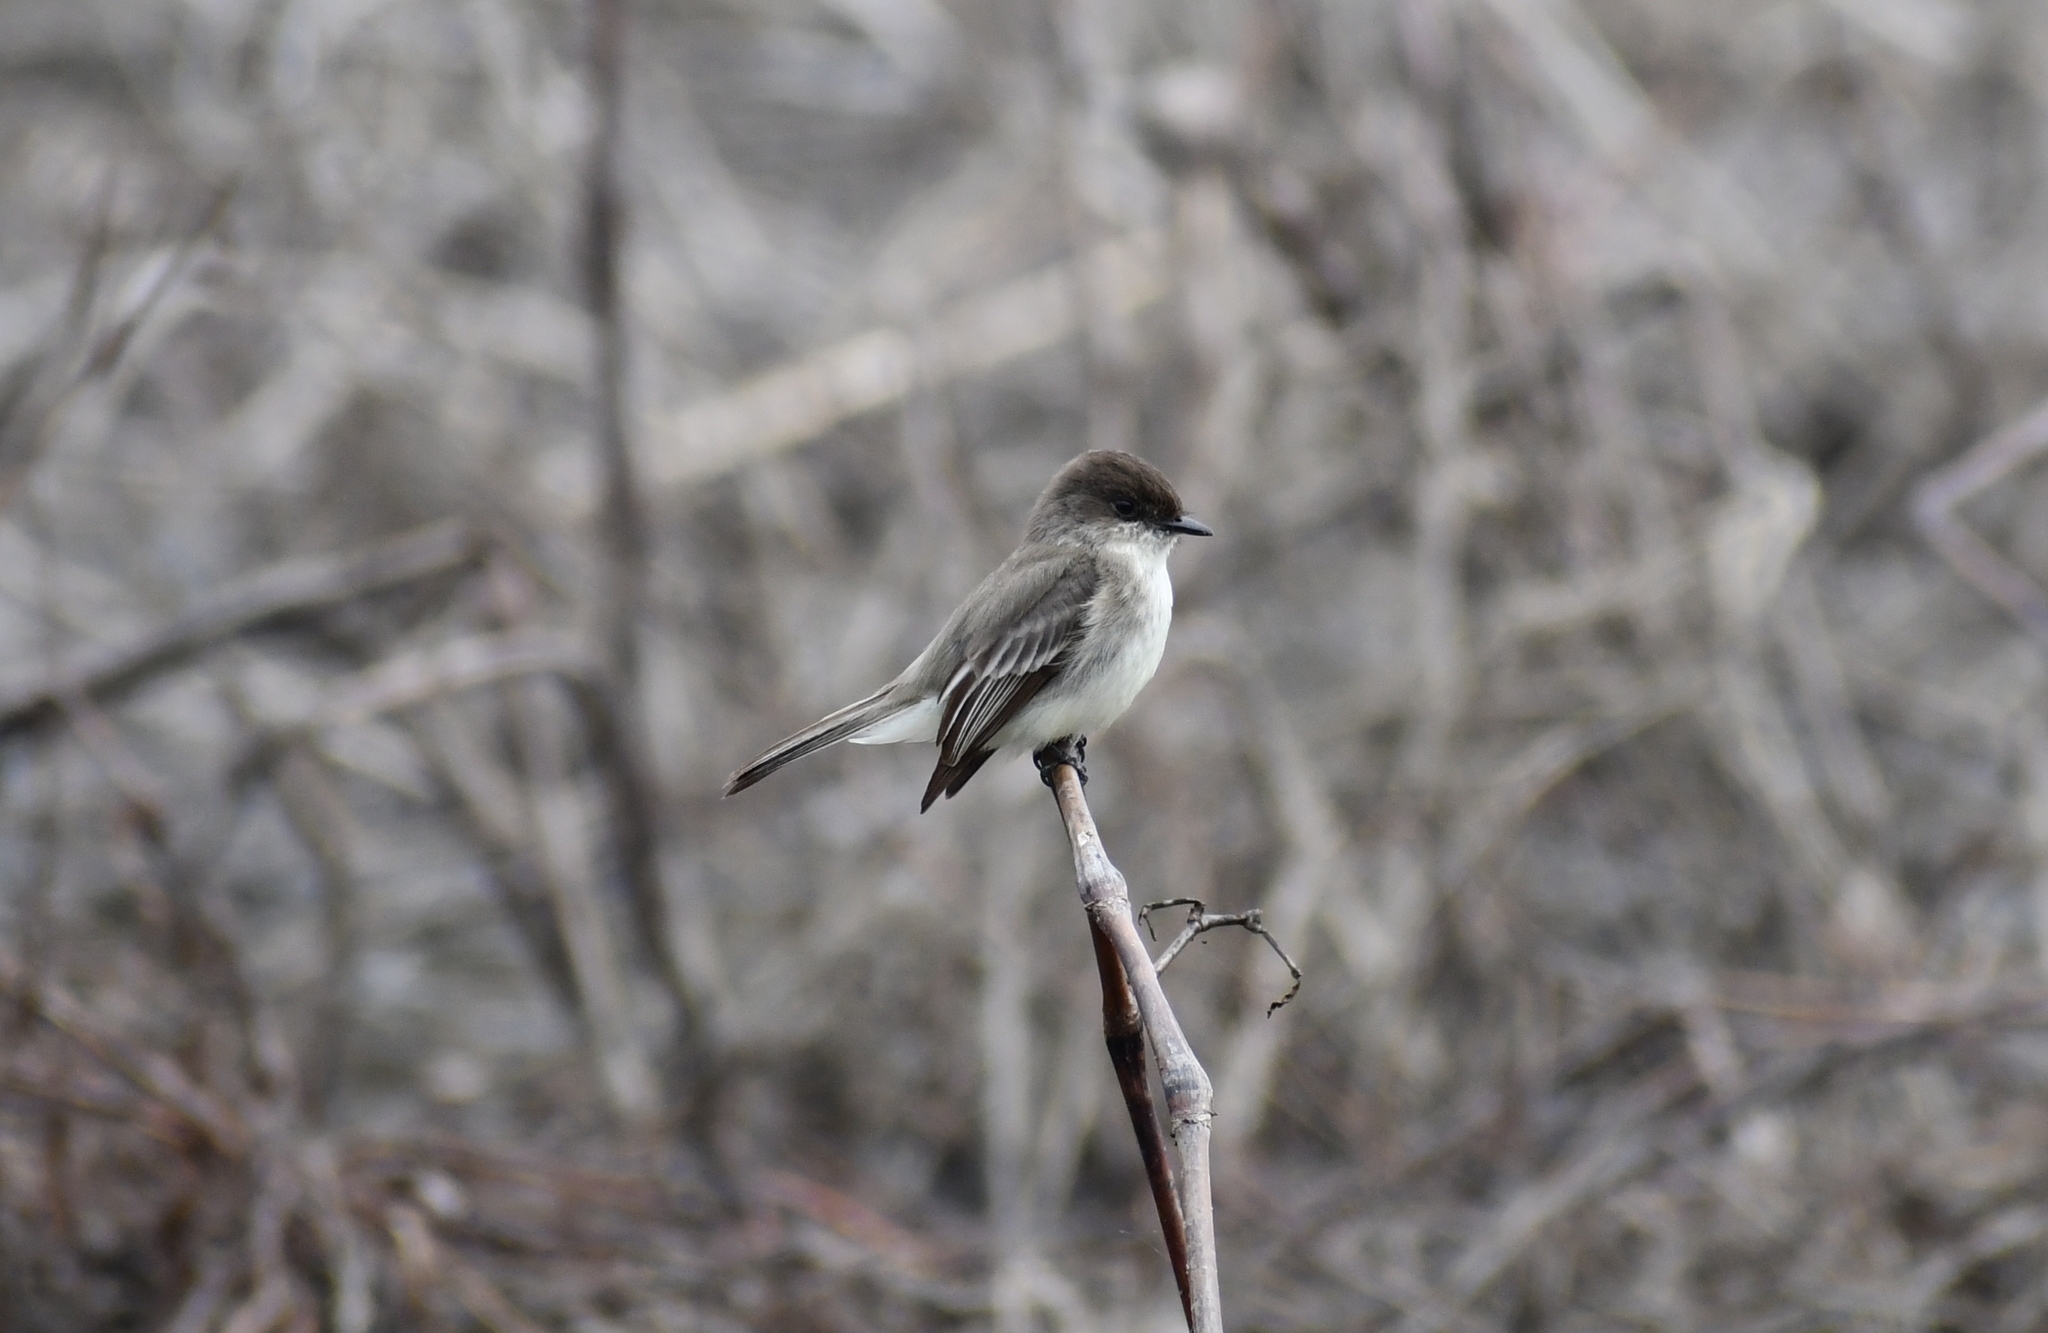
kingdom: Animalia
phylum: Chordata
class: Aves
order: Passeriformes
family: Tyrannidae
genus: Sayornis
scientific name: Sayornis phoebe
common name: Eastern phoebe
